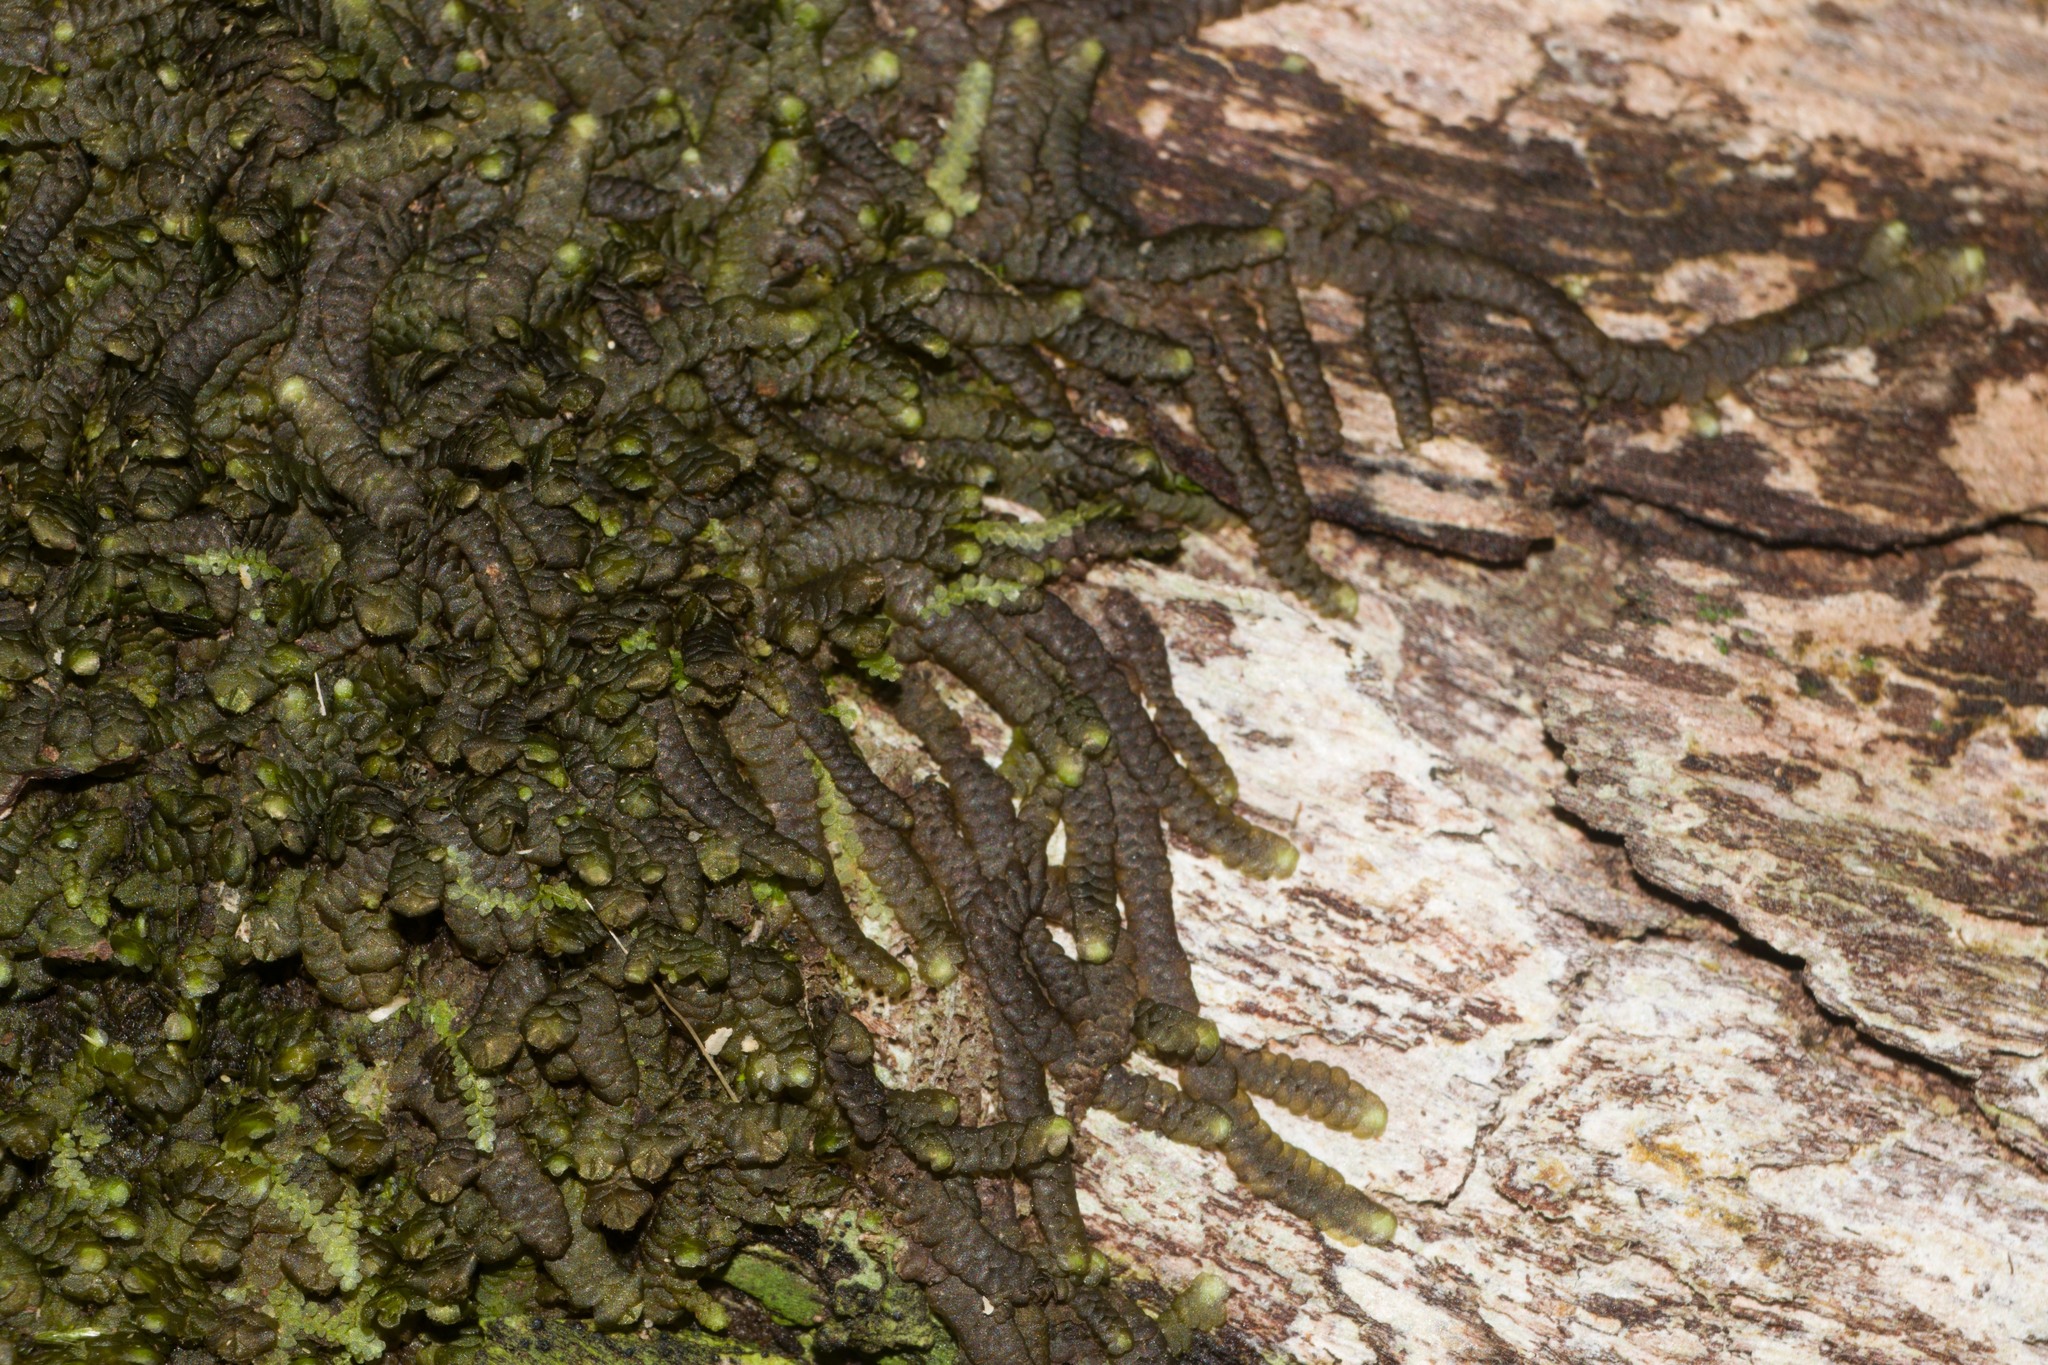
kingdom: Plantae
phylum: Marchantiophyta
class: Jungermanniopsida
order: Porellales
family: Lejeuneaceae
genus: Lopholejeunea
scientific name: Lopholejeunea nigricans
